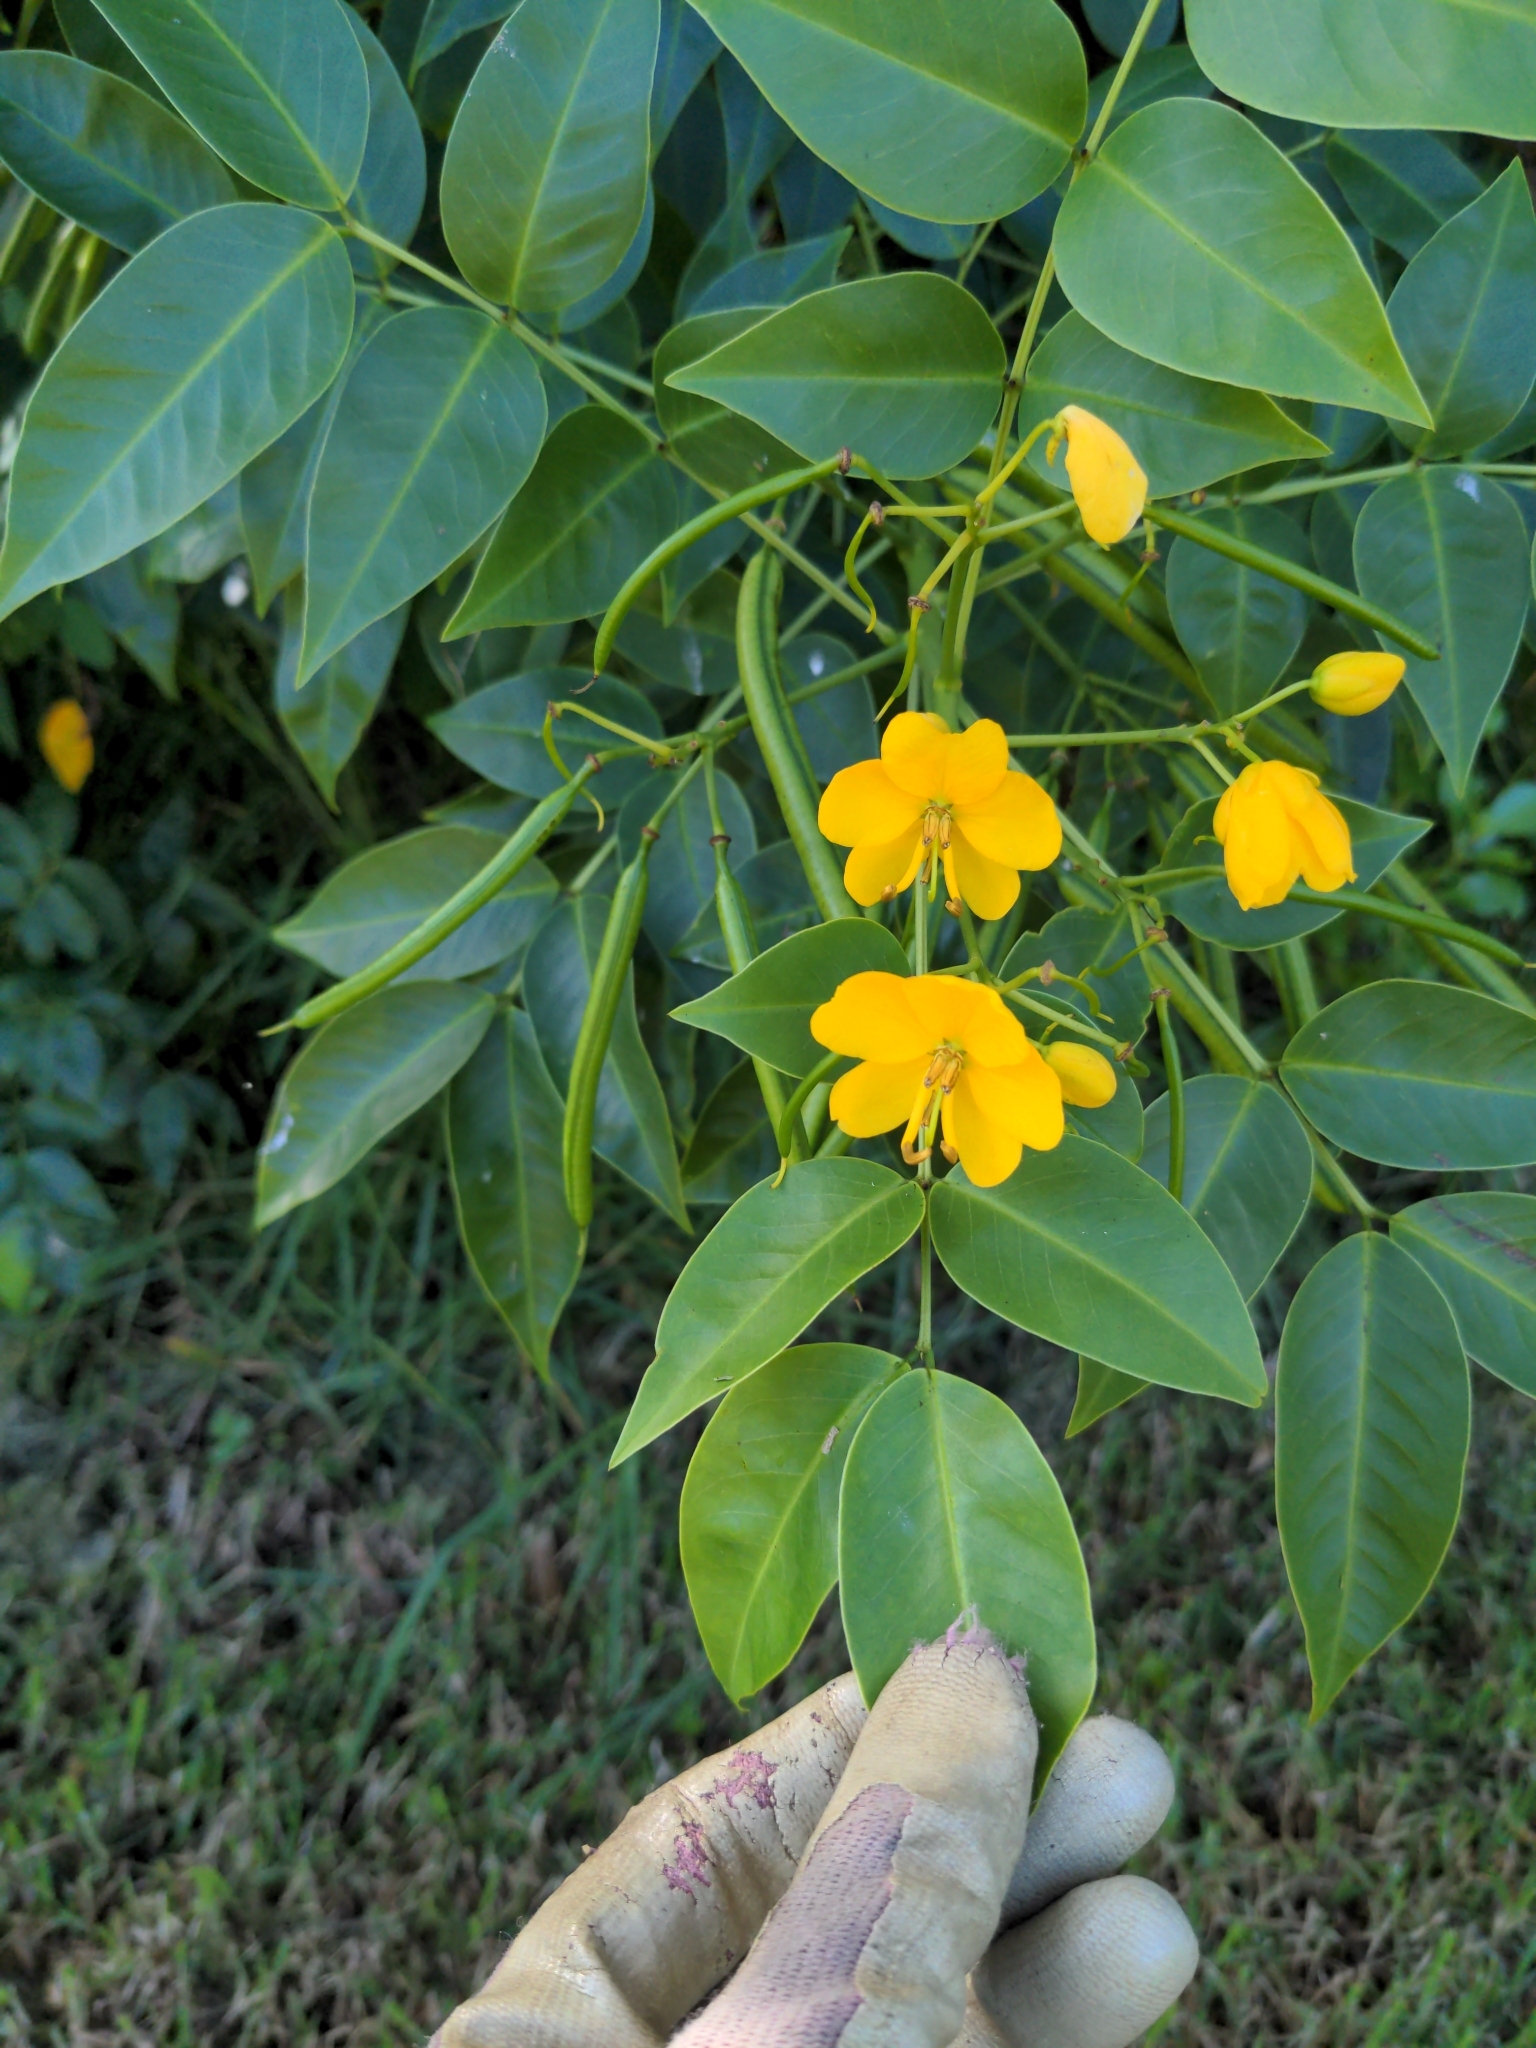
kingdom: Plantae
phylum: Tracheophyta
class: Magnoliopsida
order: Fabales
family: Fabaceae
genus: Senna
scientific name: Senna septemtrionalis
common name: Arsenic bush
